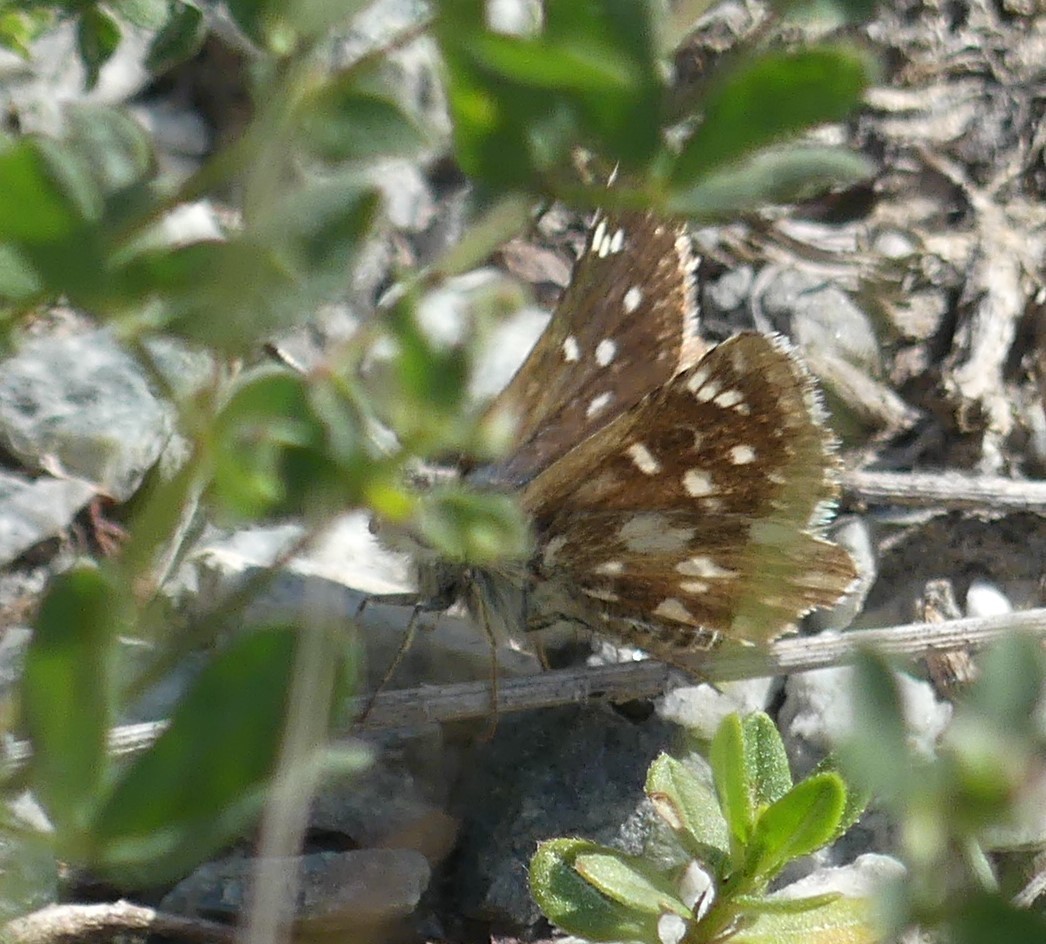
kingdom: Animalia
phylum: Arthropoda
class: Insecta
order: Lepidoptera
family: Hesperiidae
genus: Spialia
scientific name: Spialia sertorius
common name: Red underwing skipper
